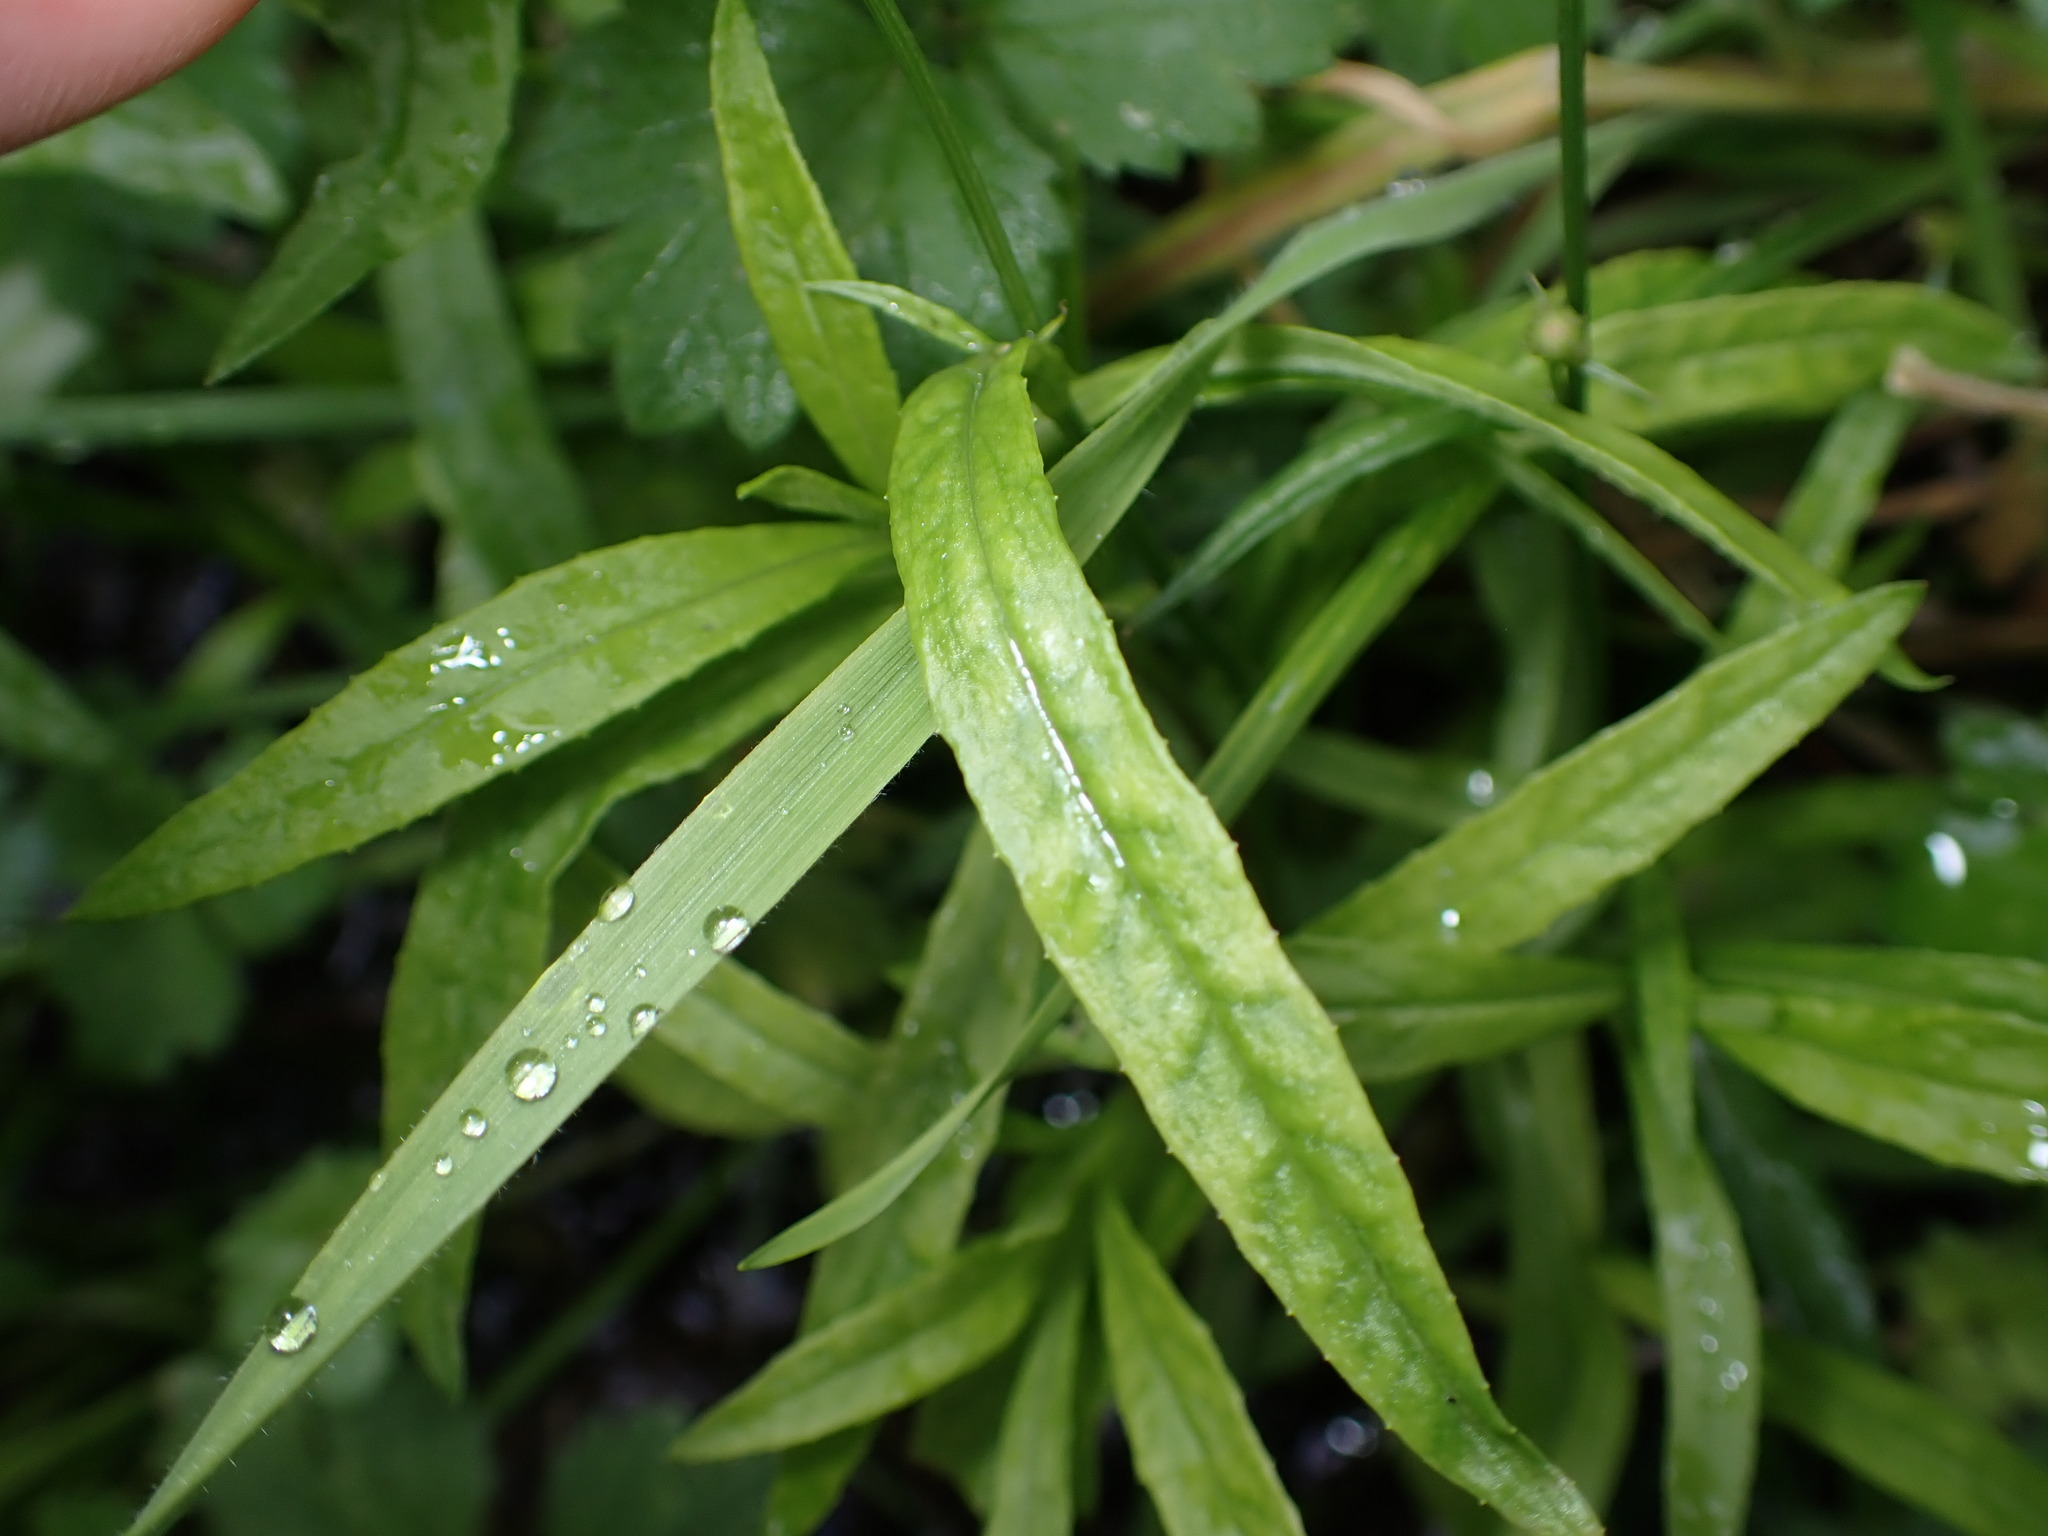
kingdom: Plantae
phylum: Tracheophyta
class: Magnoliopsida
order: Asterales
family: Asteraceae
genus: Senecio
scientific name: Senecio skirrhodon
